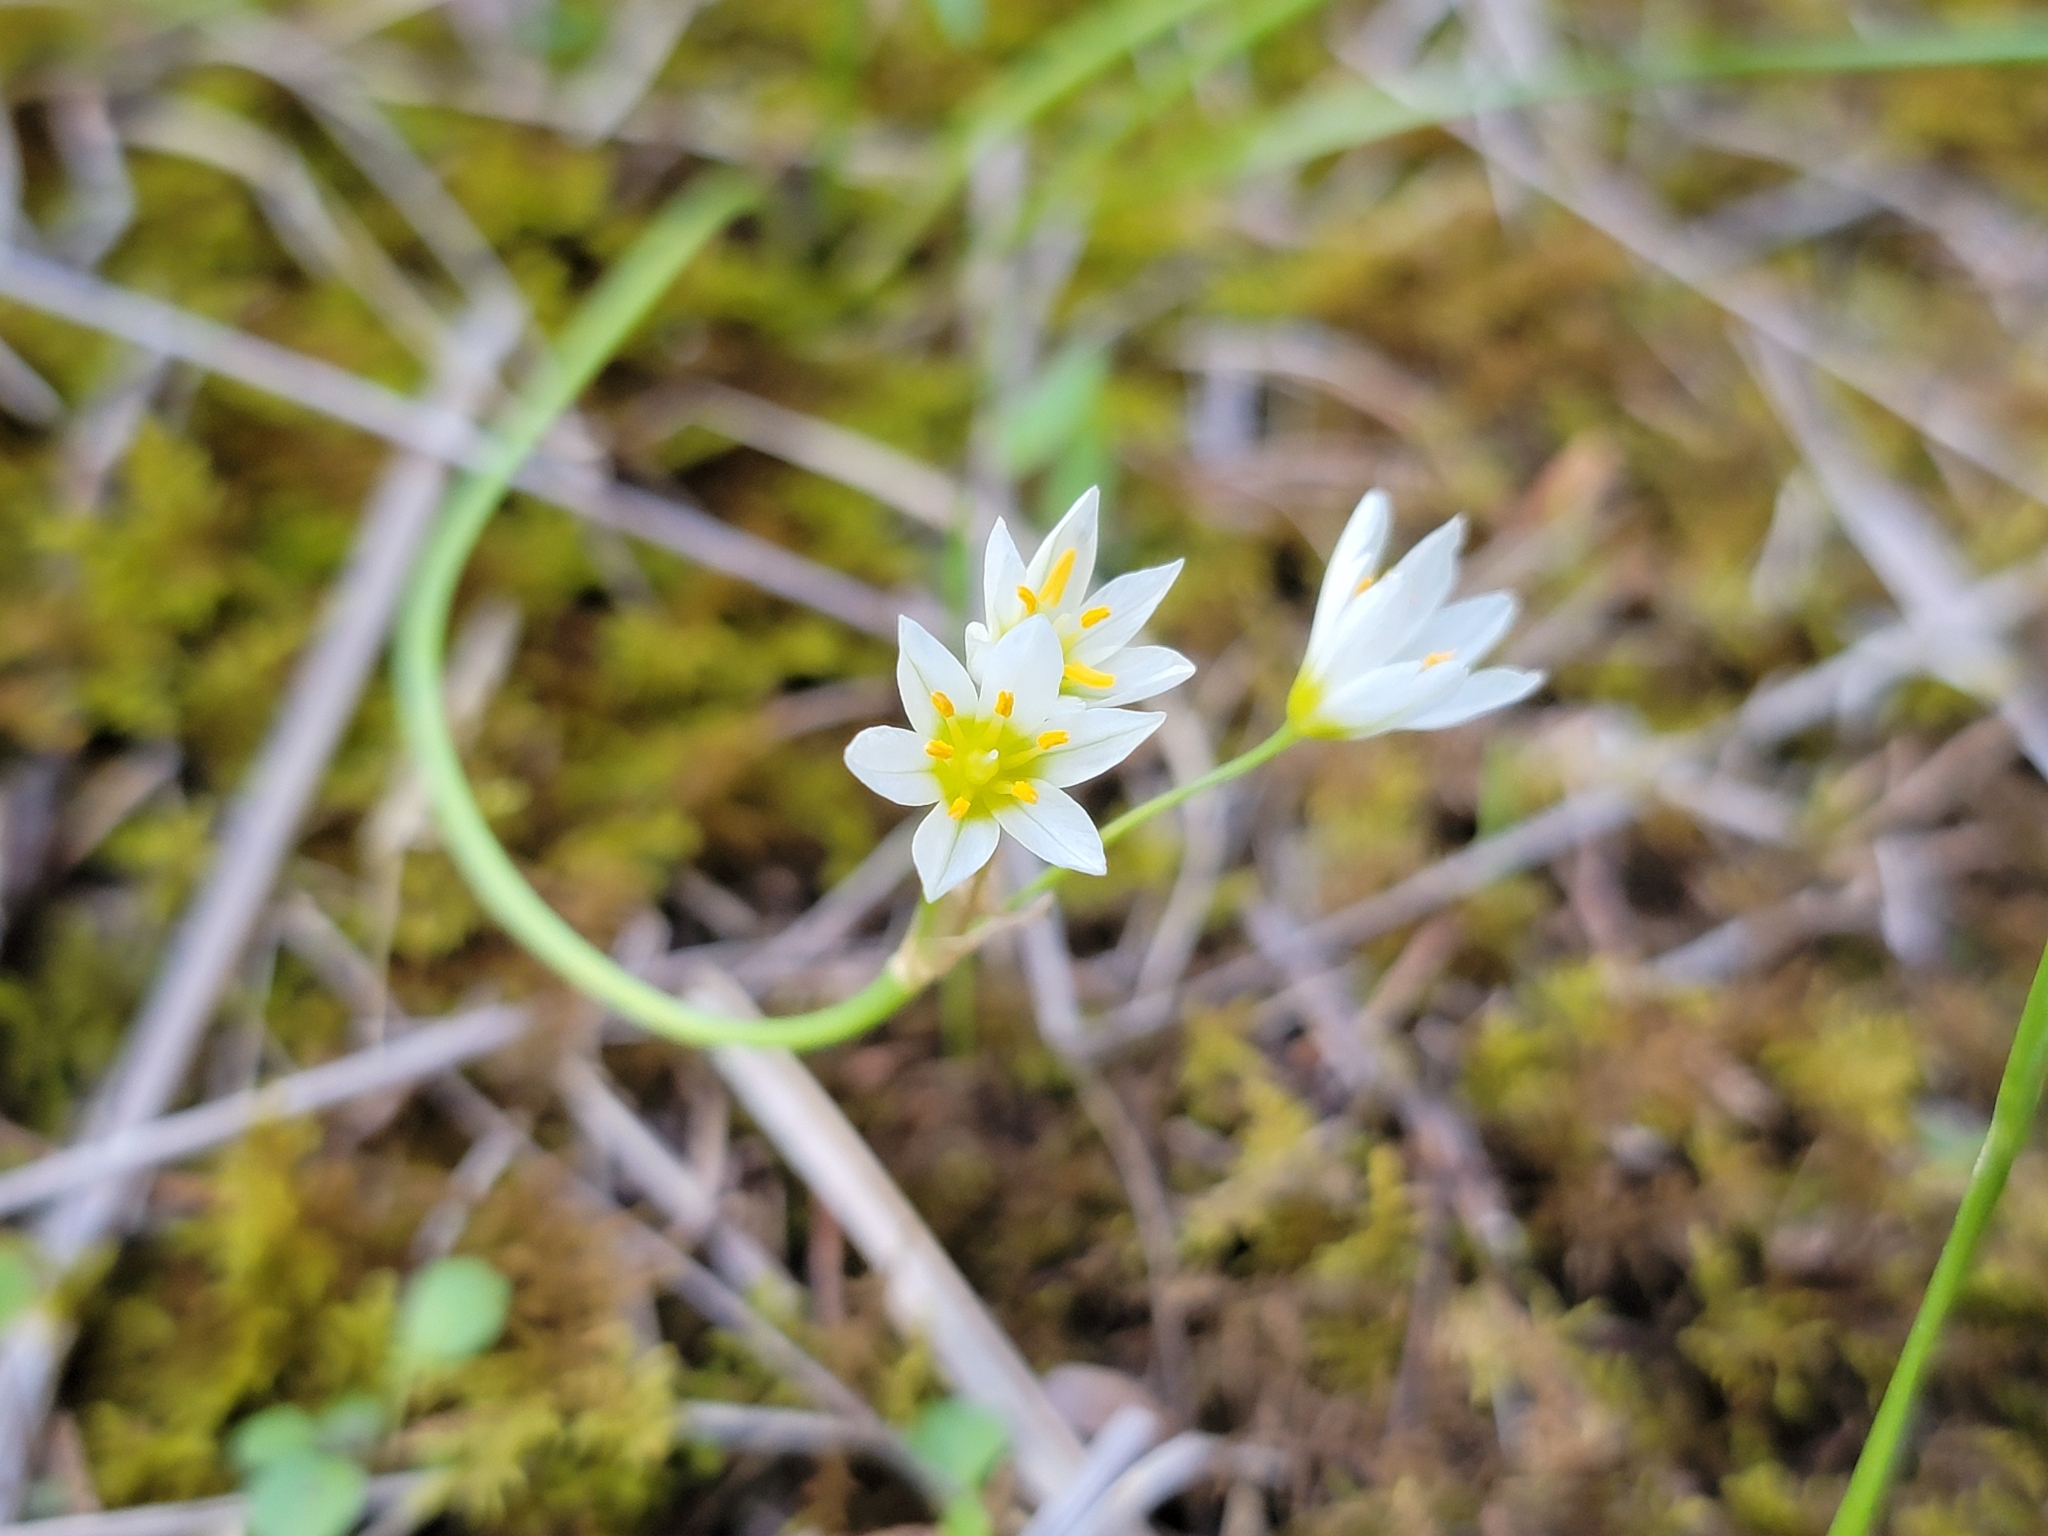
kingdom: Plantae
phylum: Tracheophyta
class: Liliopsida
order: Asparagales
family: Amaryllidaceae
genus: Nothoscordum
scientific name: Nothoscordum bivalve
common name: Crow-poison
